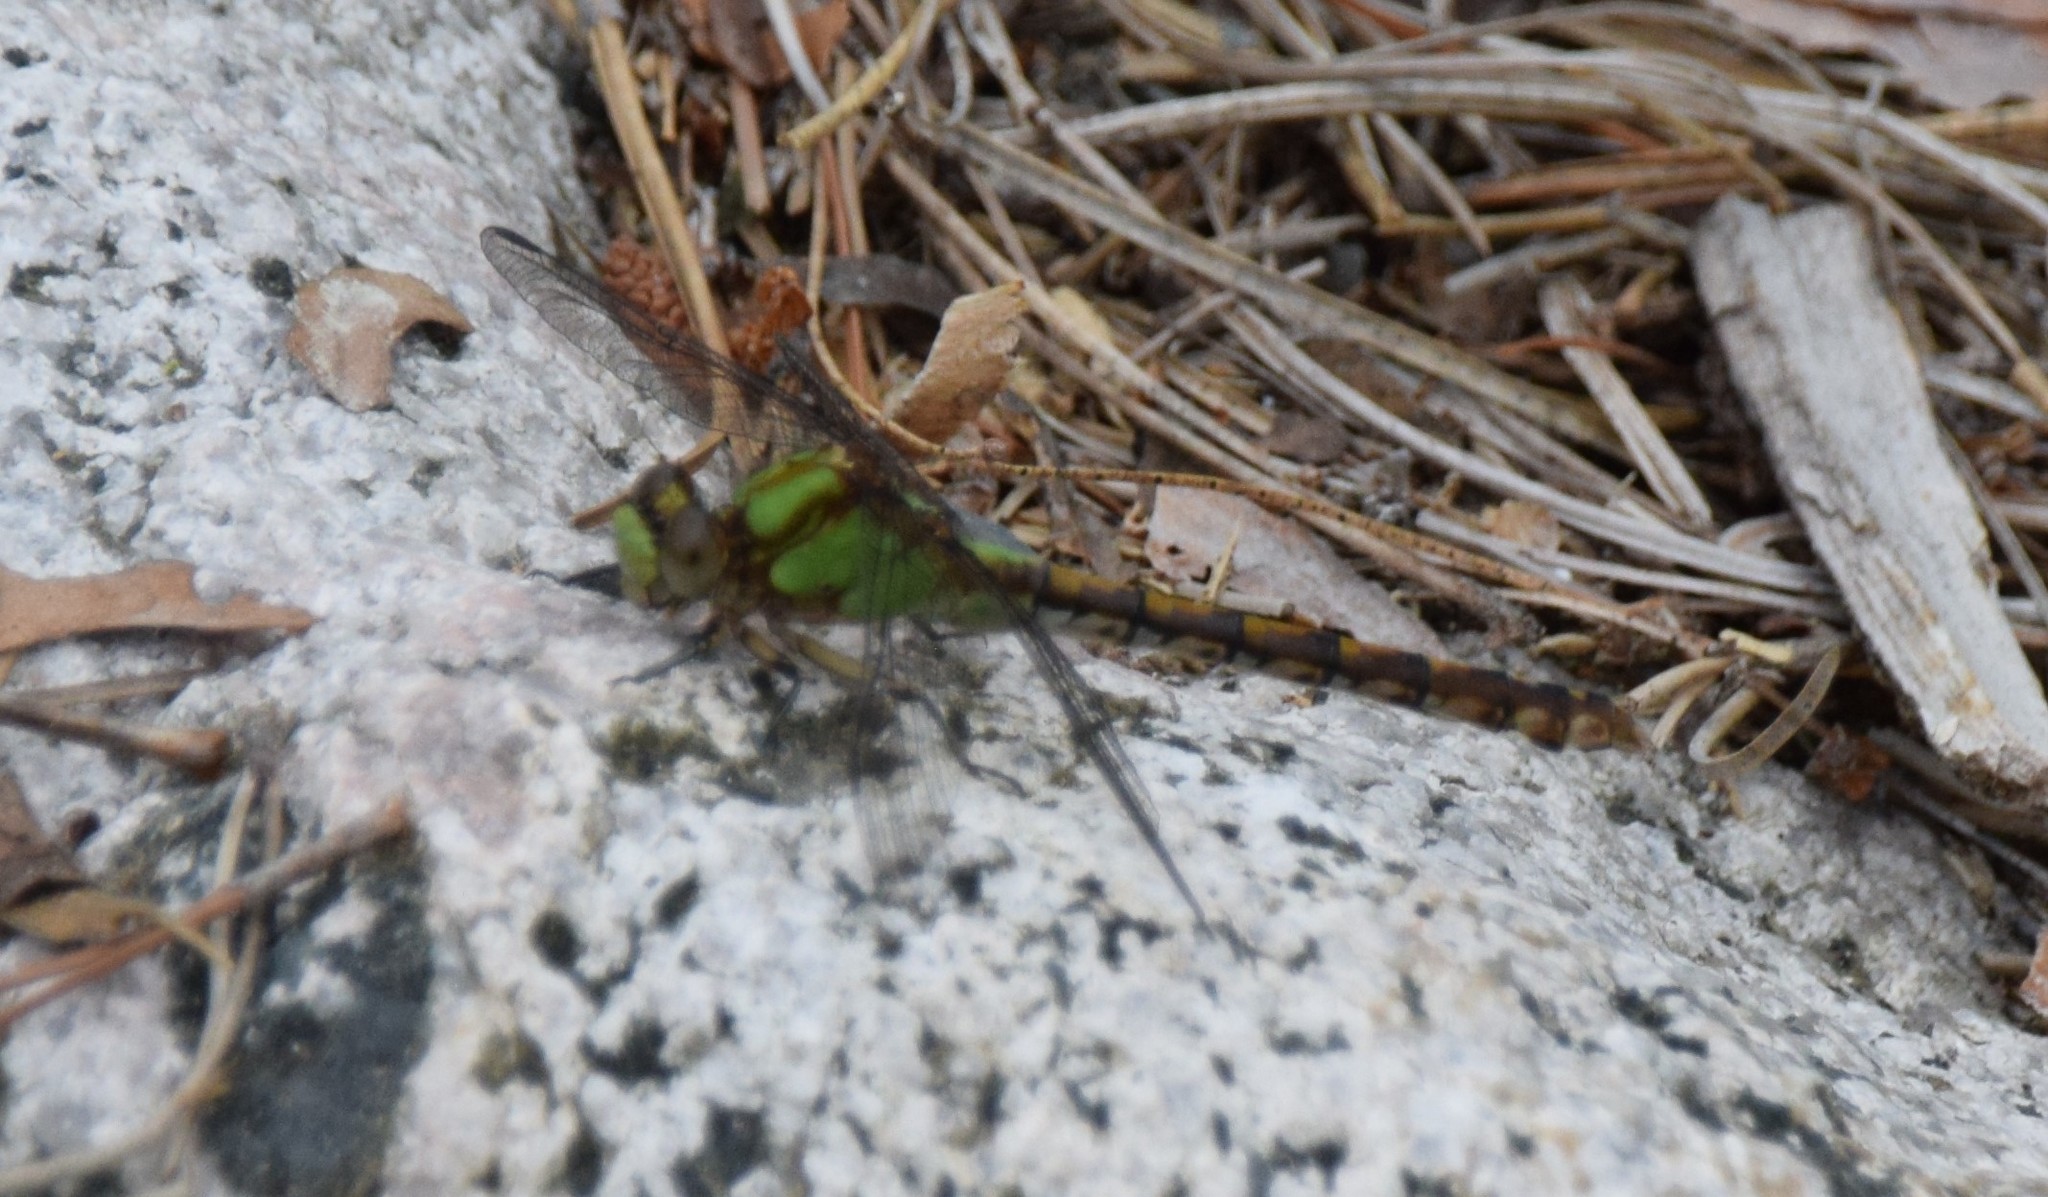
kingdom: Animalia
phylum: Arthropoda
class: Insecta
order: Odonata
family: Gomphidae
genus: Ophiogomphus
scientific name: Ophiogomphus rupinsulensis
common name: Rusty snaketail
